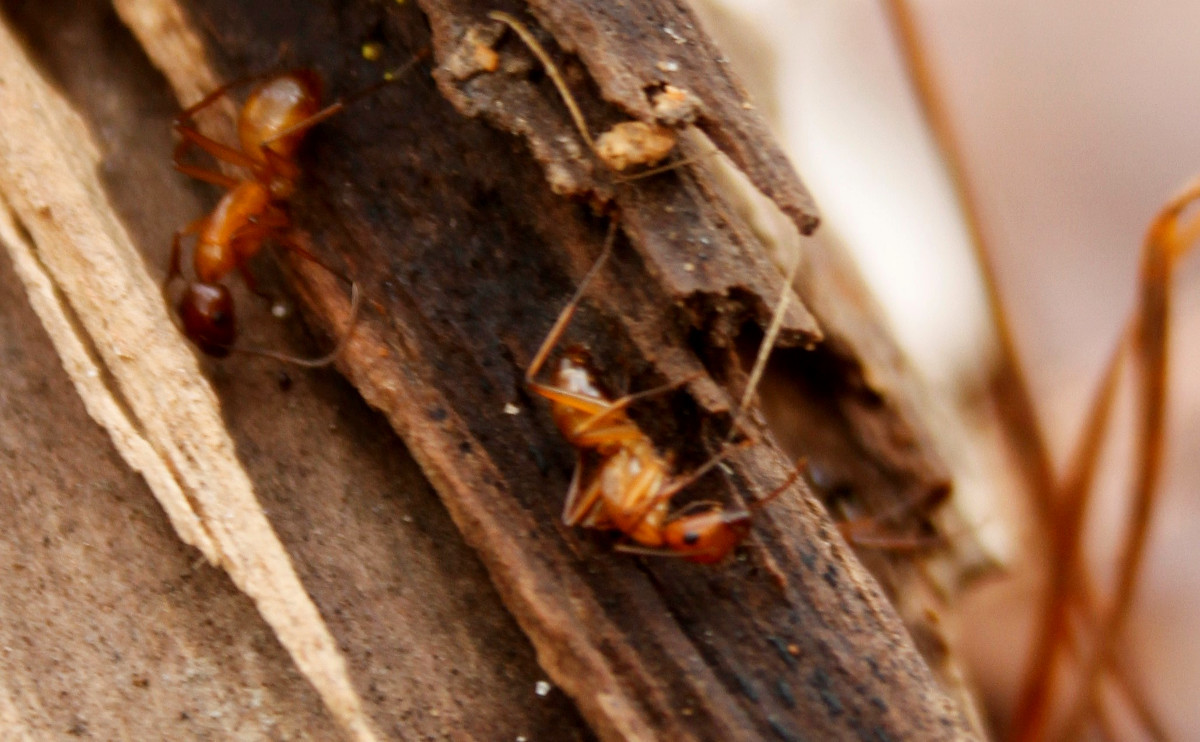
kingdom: Animalia
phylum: Arthropoda
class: Insecta
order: Hymenoptera
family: Formicidae
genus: Camponotus
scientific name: Camponotus castaneus
